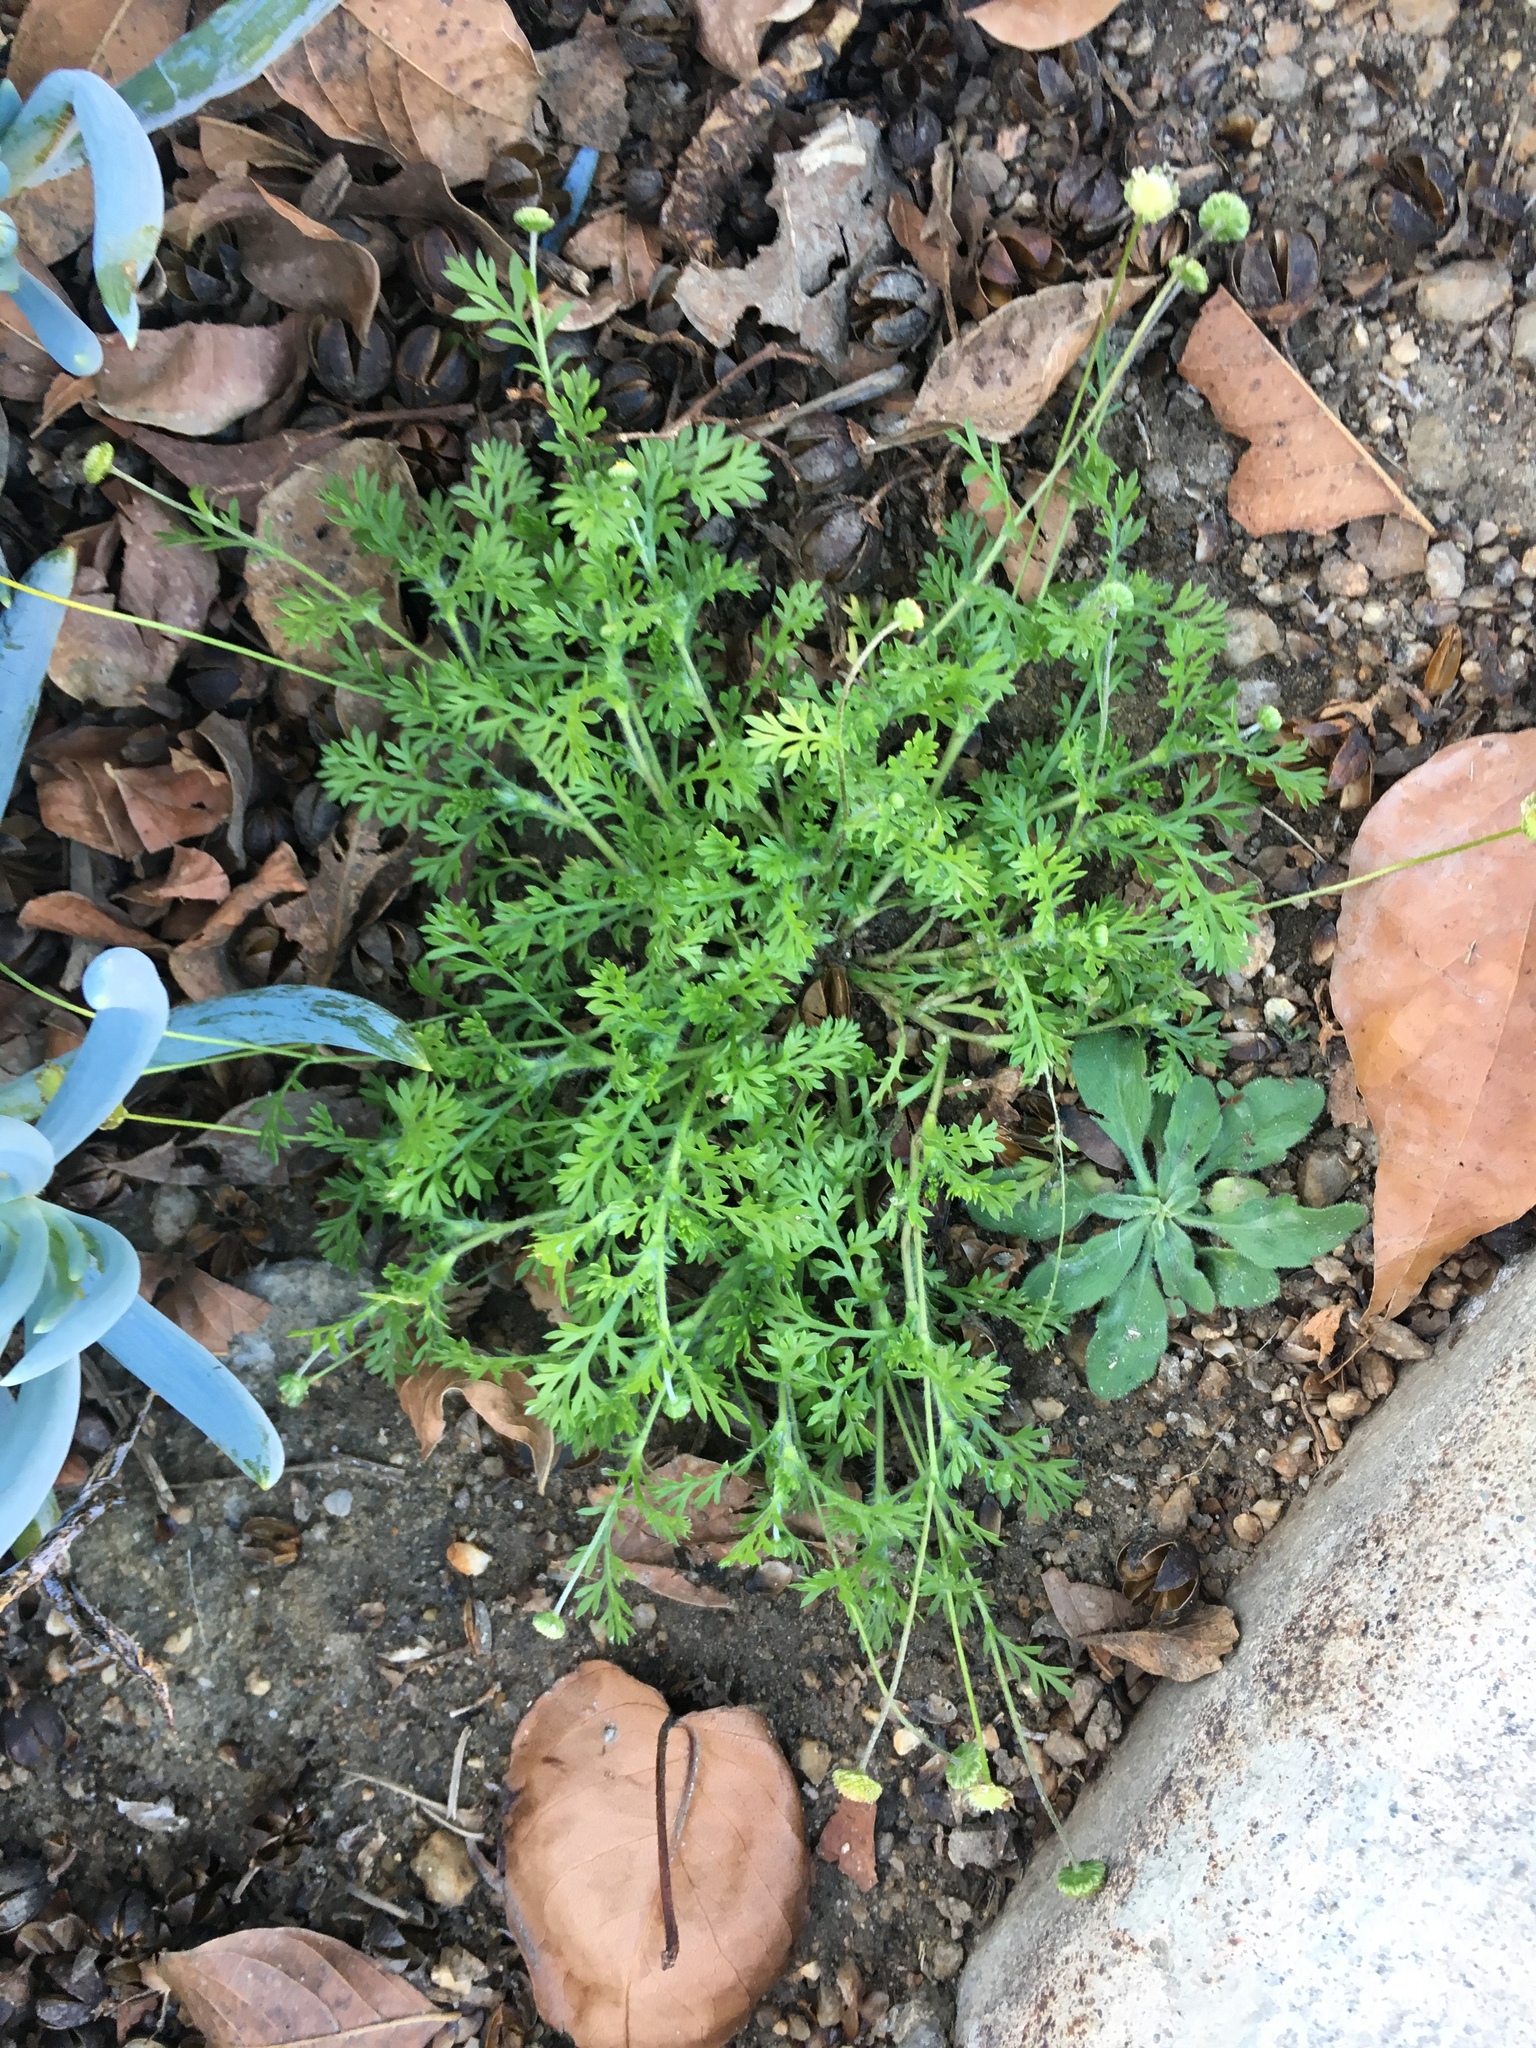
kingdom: Plantae
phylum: Tracheophyta
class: Magnoliopsida
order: Asterales
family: Asteraceae
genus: Cotula
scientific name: Cotula australis
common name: Australian waterbuttons
